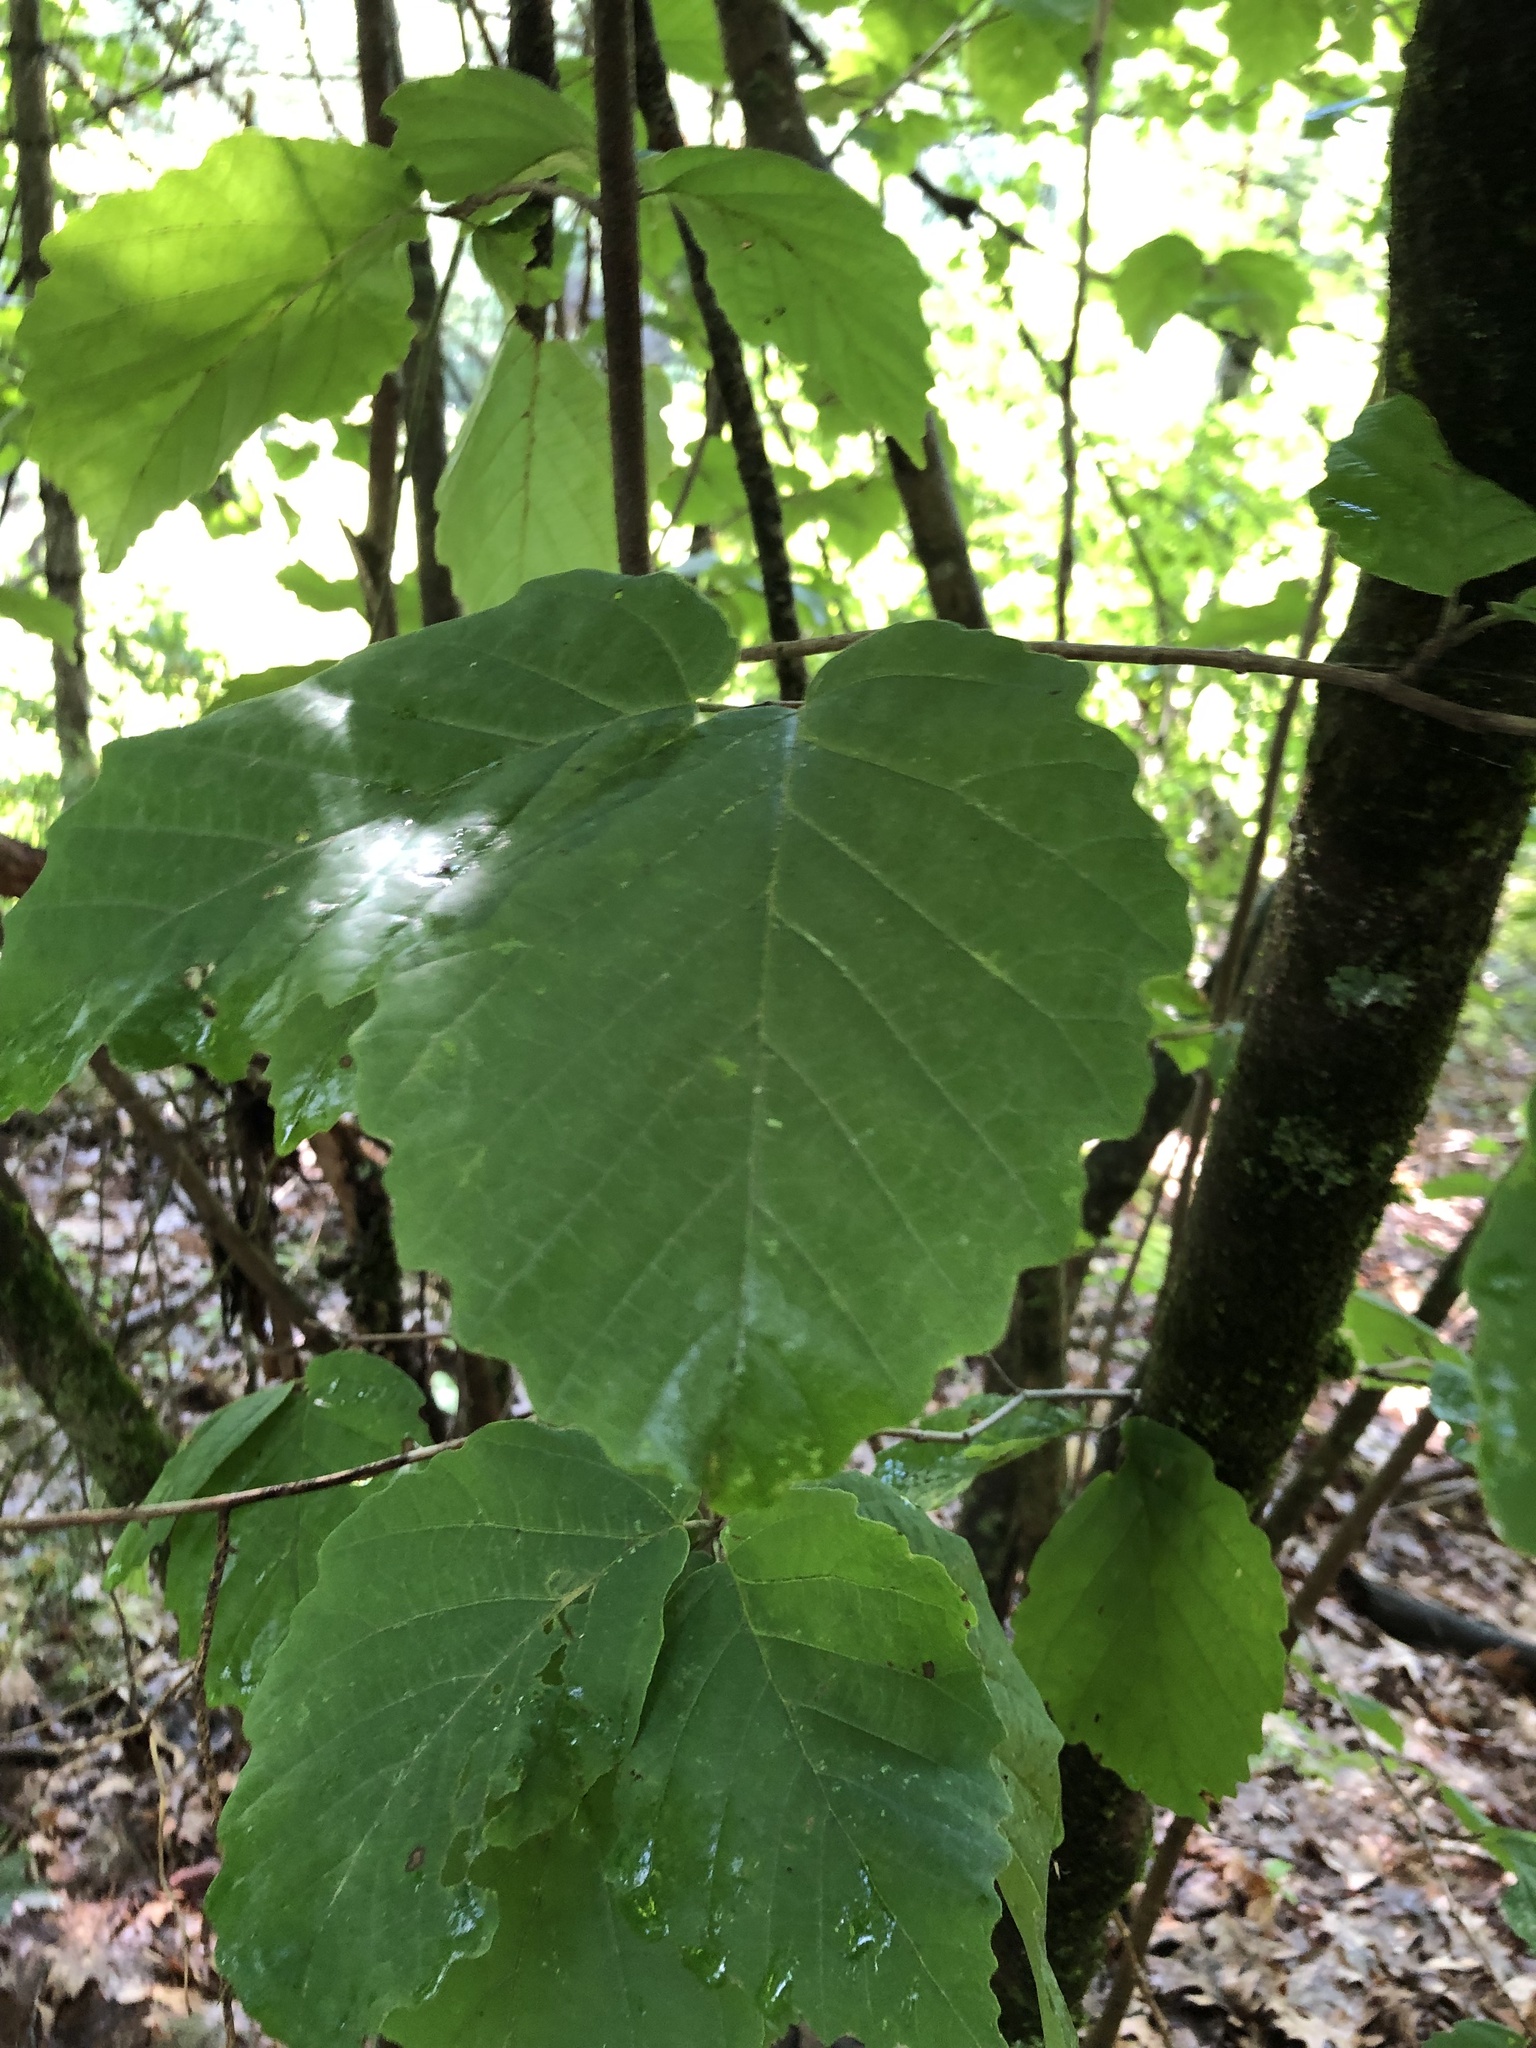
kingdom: Plantae
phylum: Tracheophyta
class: Magnoliopsida
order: Saxifragales
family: Hamamelidaceae
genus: Hamamelis
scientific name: Hamamelis virginiana
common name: Witch-hazel
